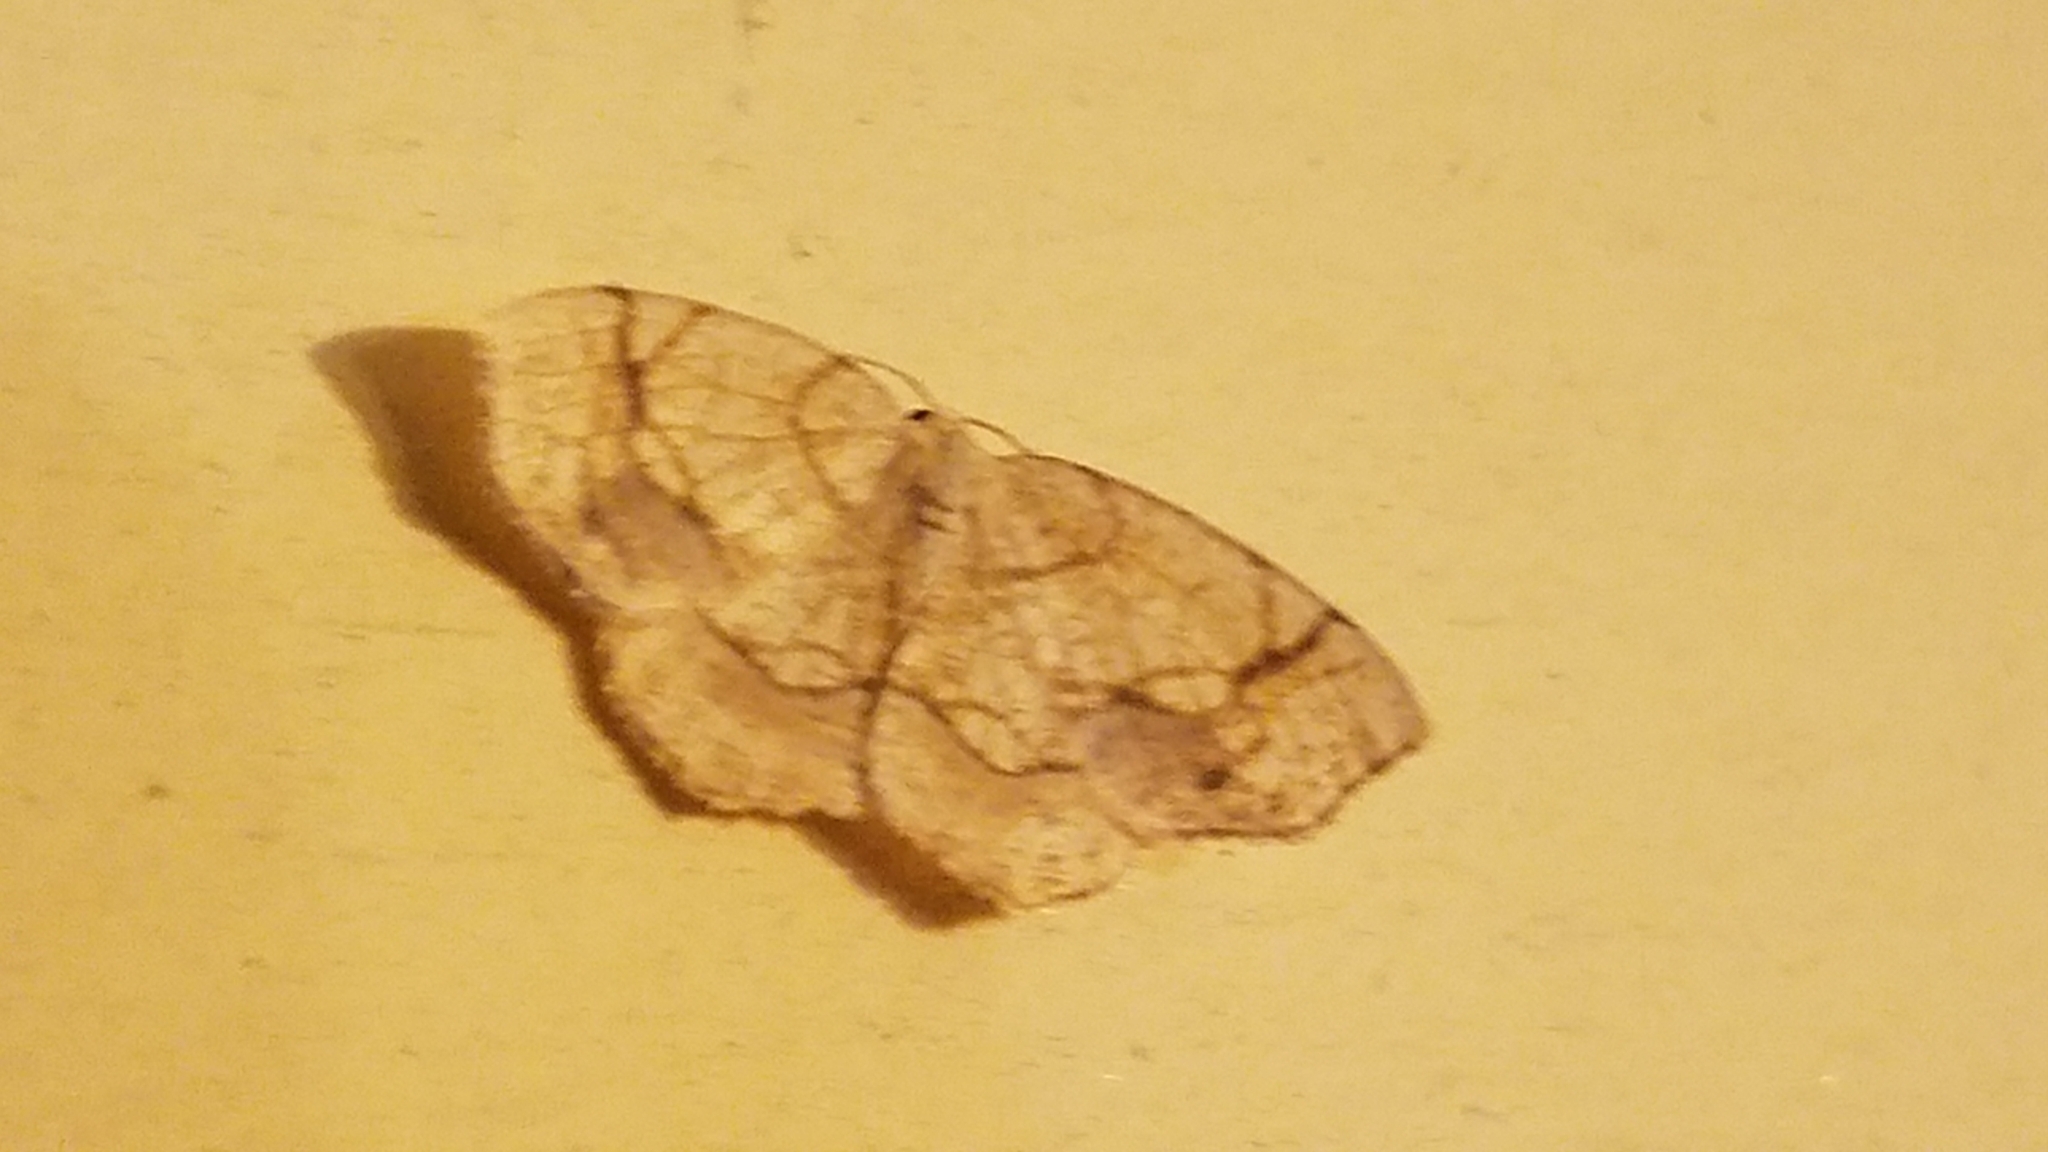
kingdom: Animalia
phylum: Arthropoda
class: Insecta
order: Lepidoptera
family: Geometridae
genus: Nematocampa
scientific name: Nematocampa resistaria
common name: Horned spanworm moth
